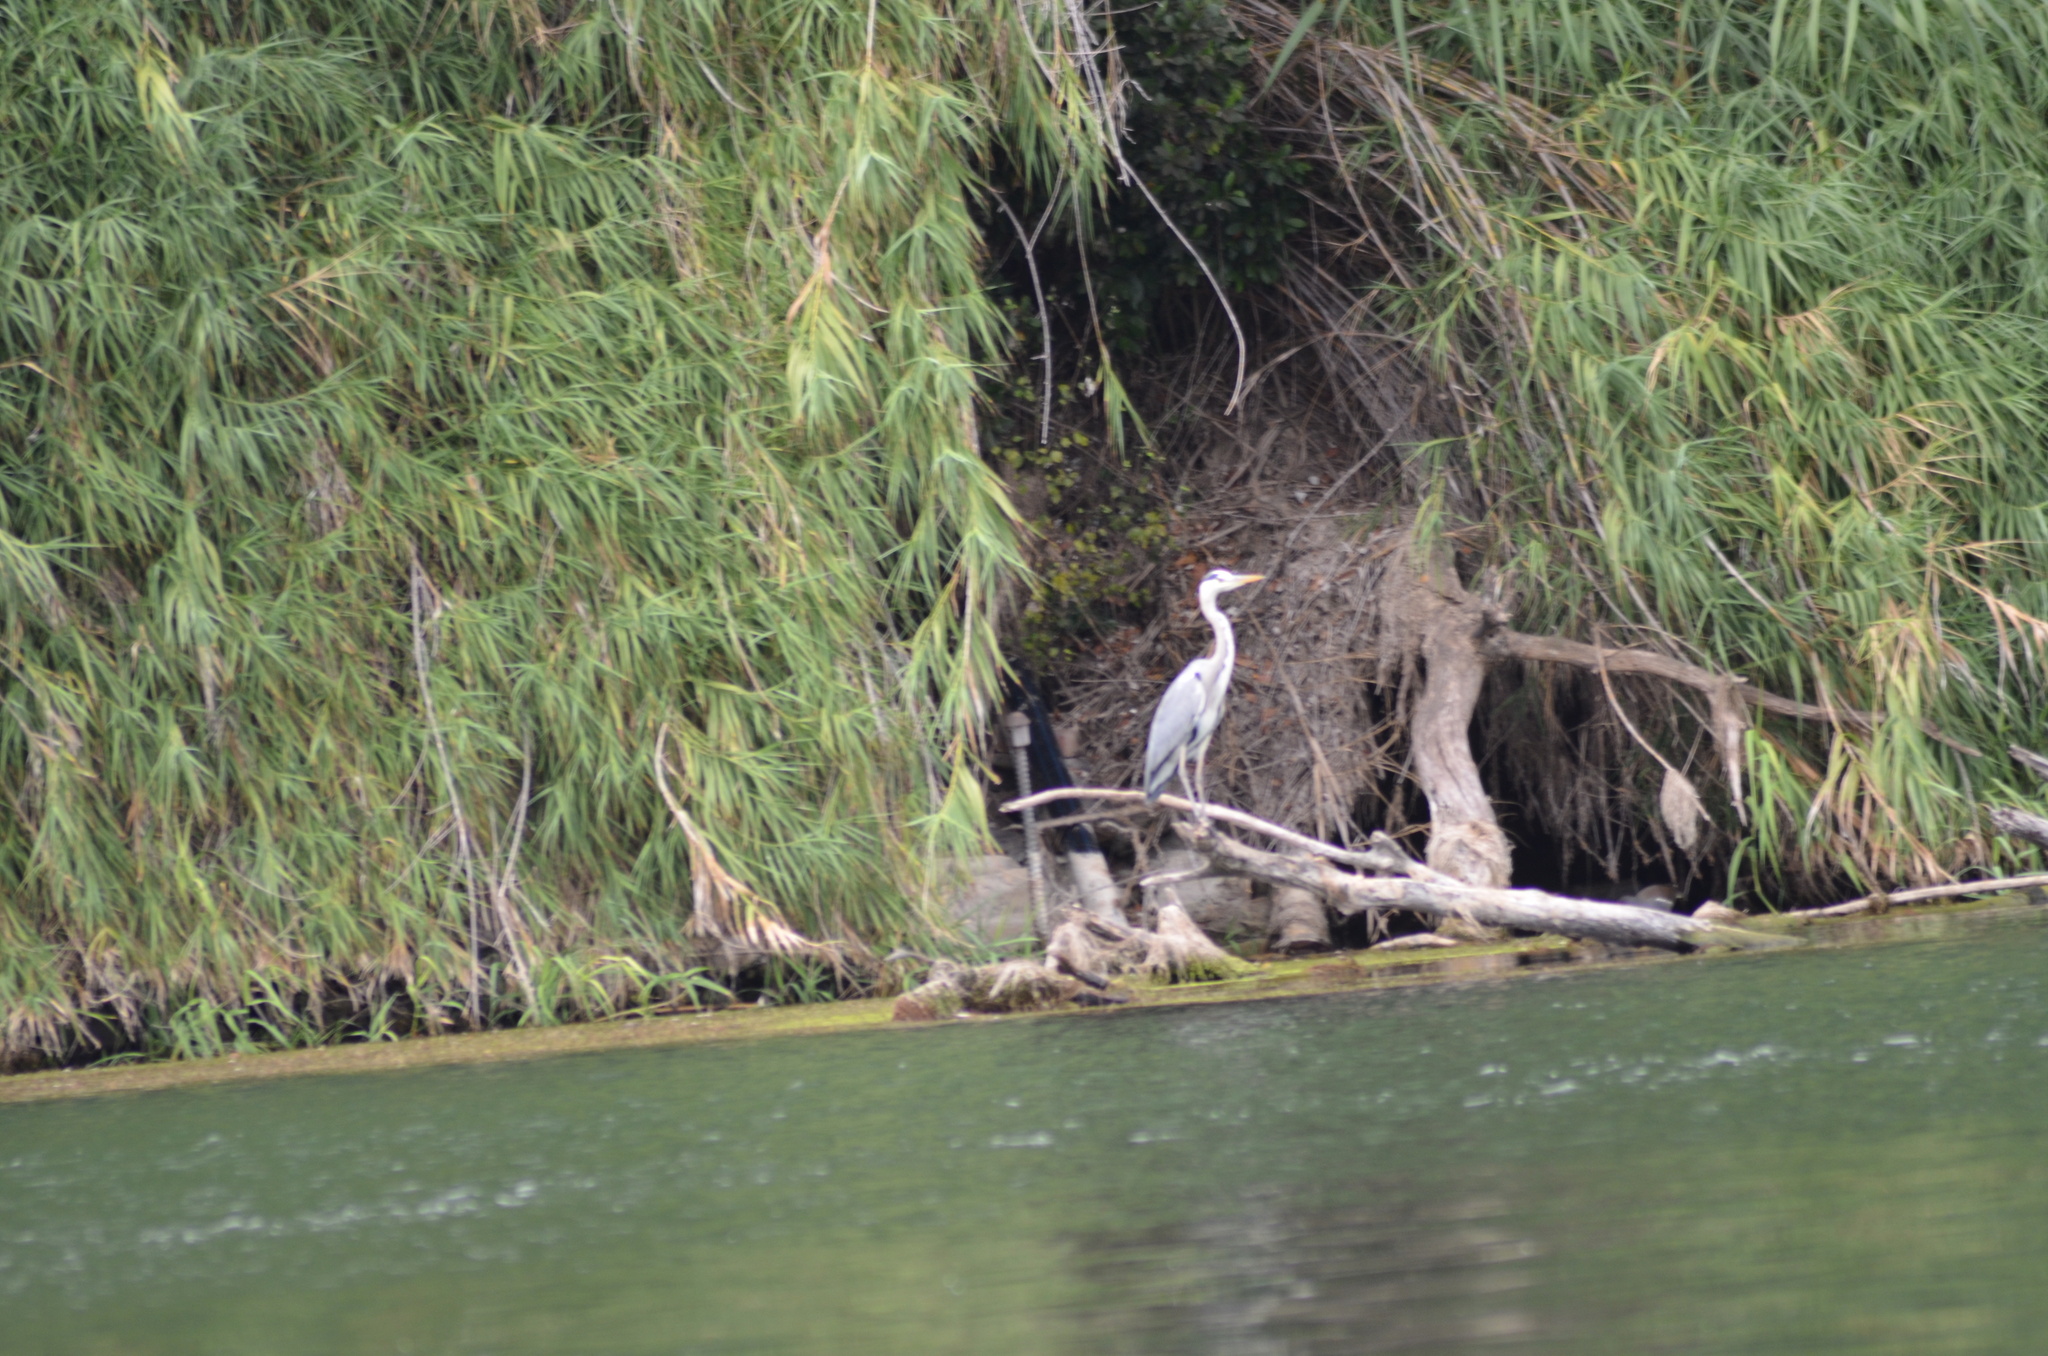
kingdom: Animalia
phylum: Chordata
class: Aves
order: Pelecaniformes
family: Ardeidae
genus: Ardea
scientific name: Ardea cinerea
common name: Grey heron
